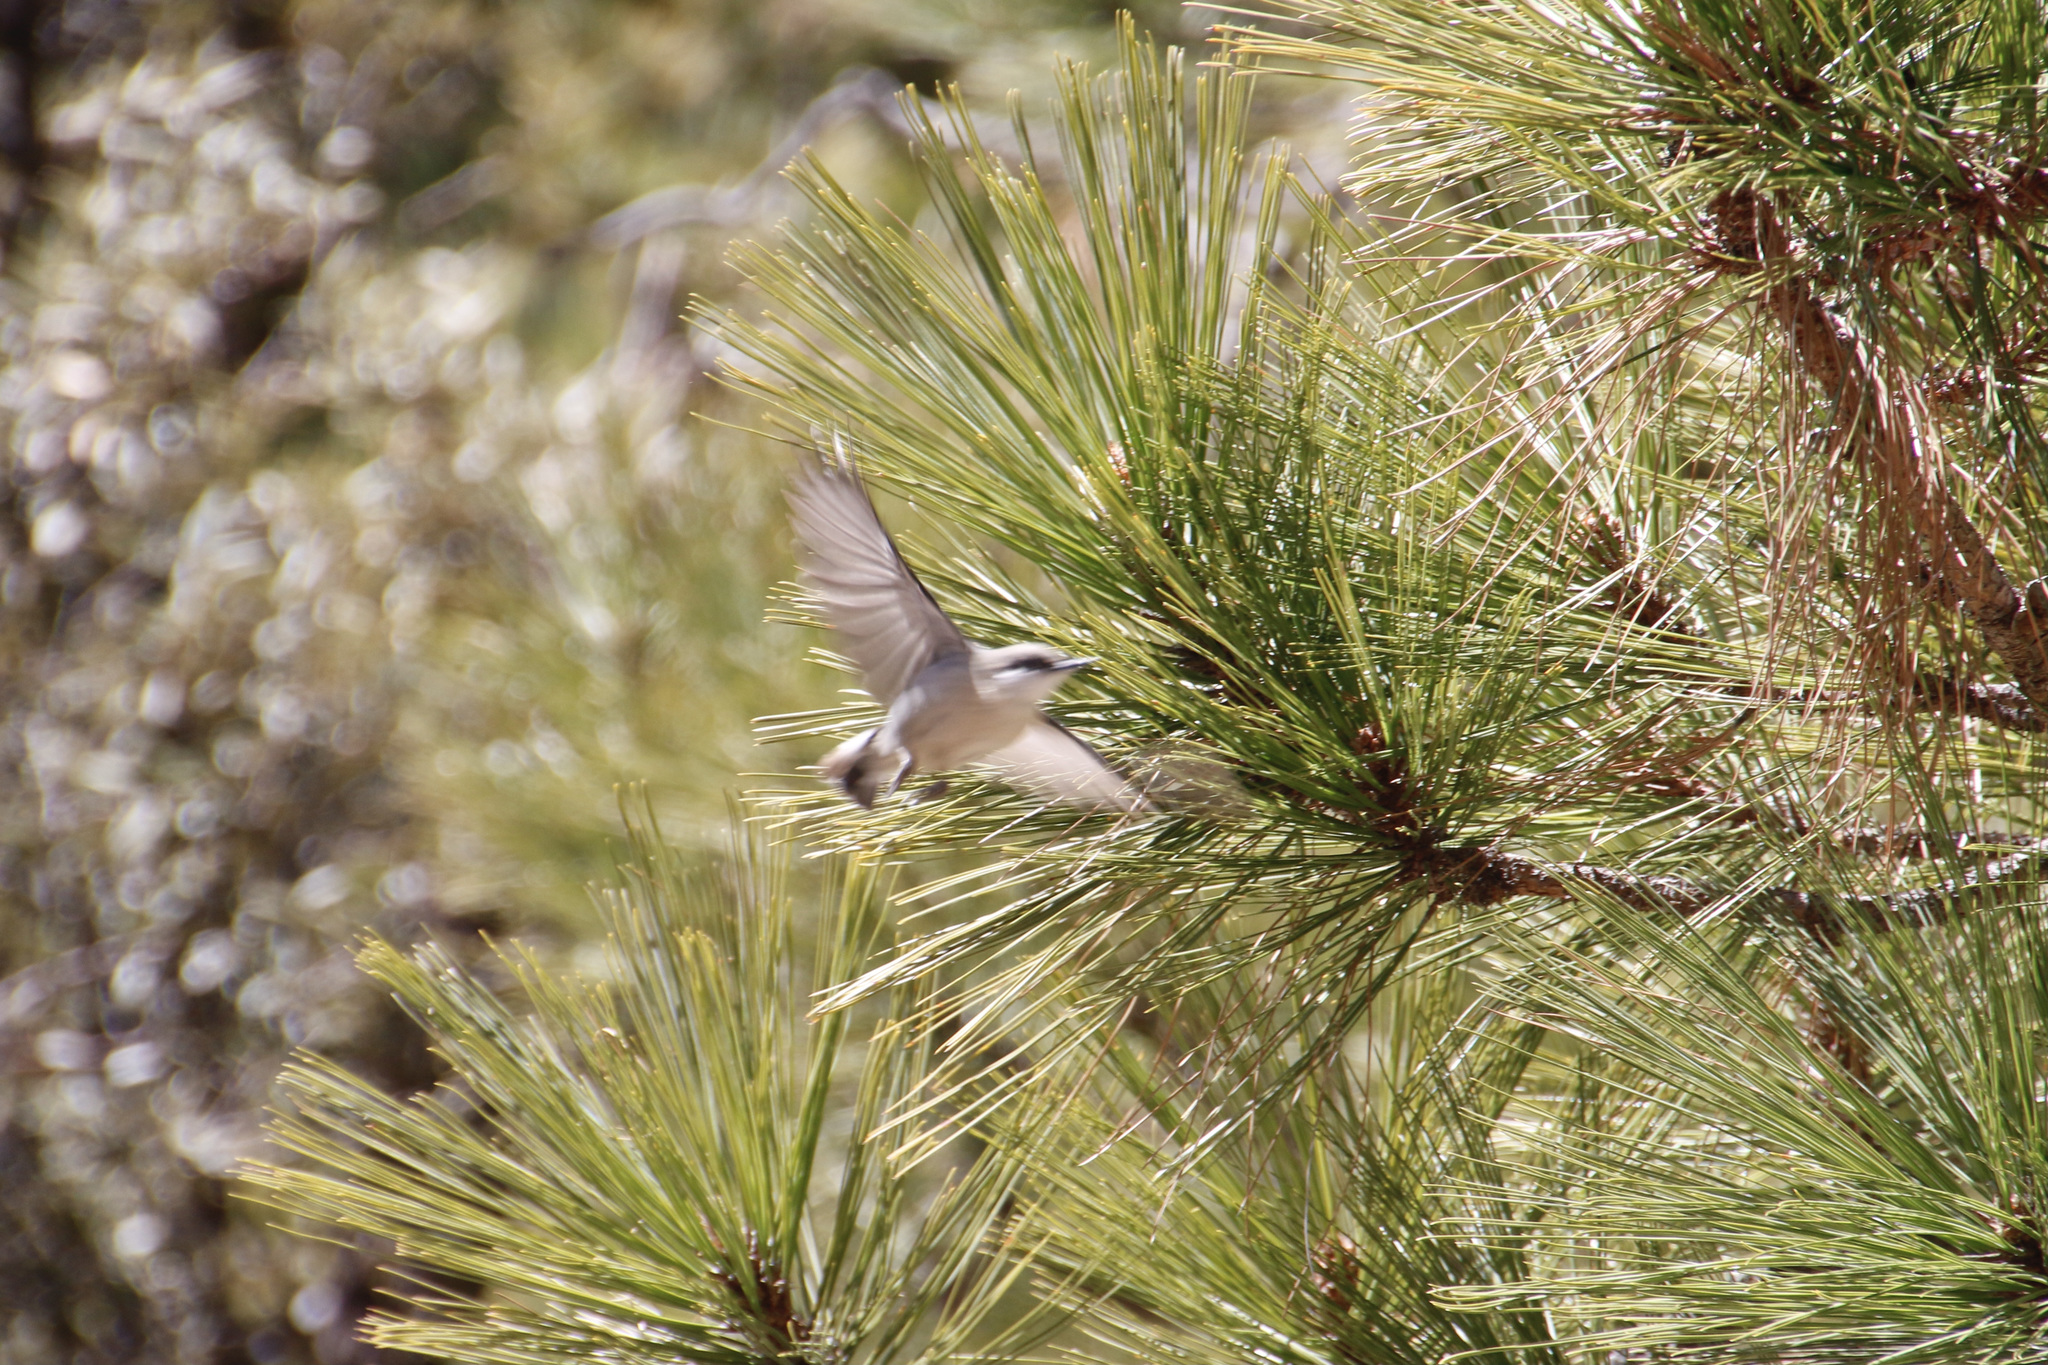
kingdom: Animalia
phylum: Chordata
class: Aves
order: Passeriformes
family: Sittidae
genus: Sitta
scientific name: Sitta pygmaea
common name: Pygmy nuthatch
